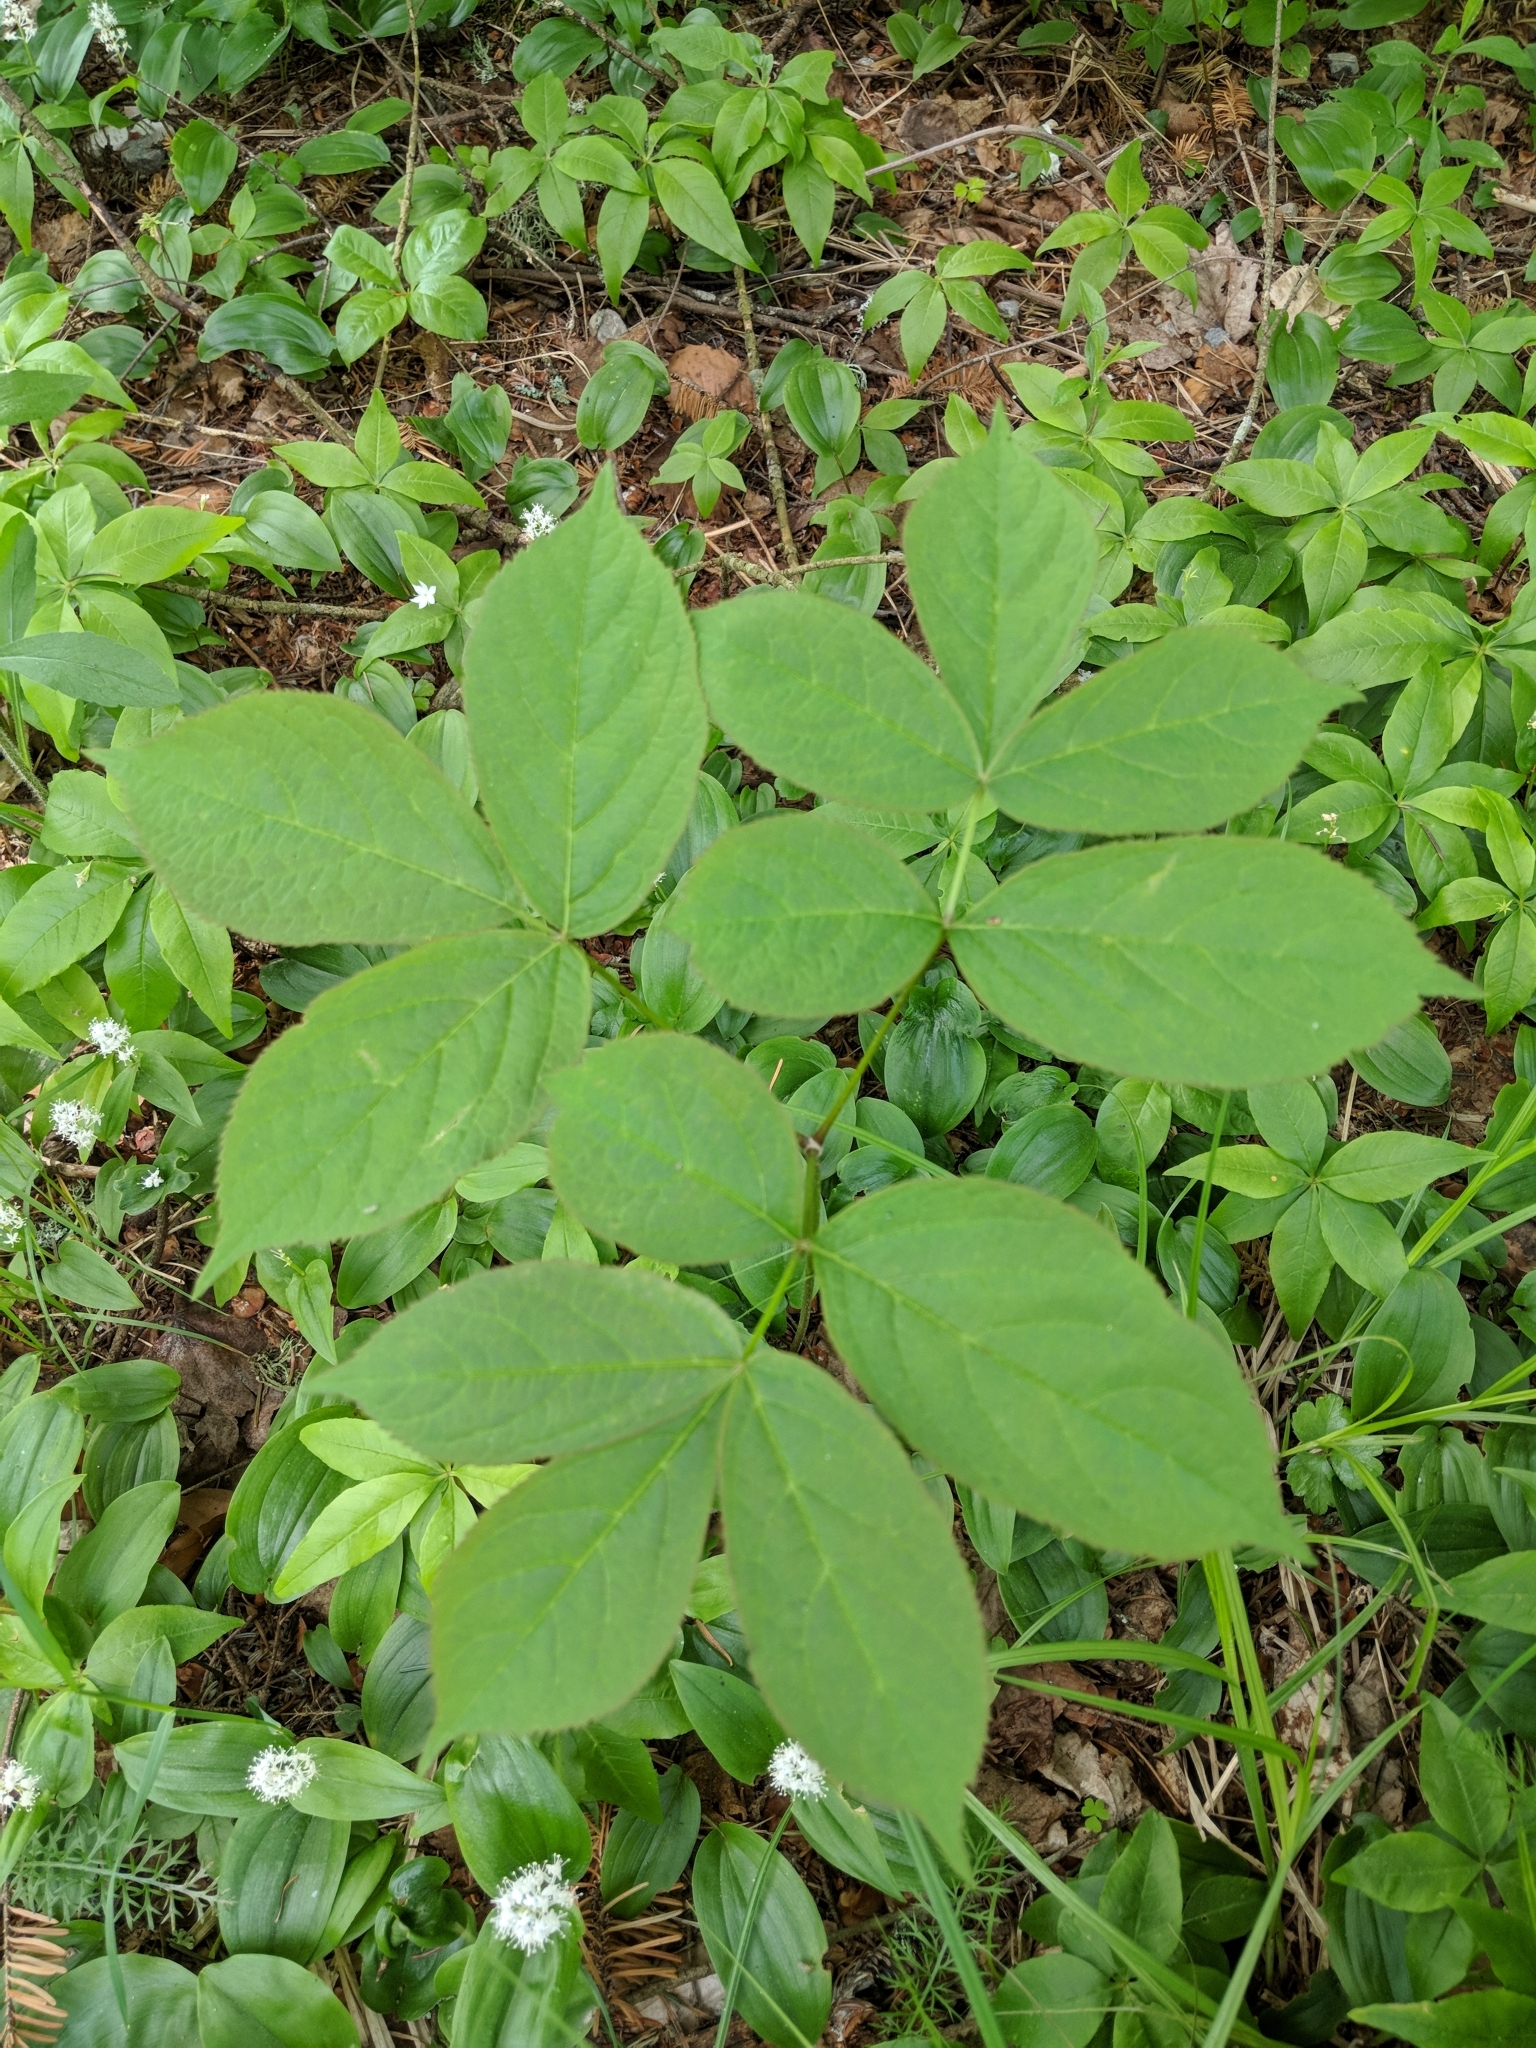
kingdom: Plantae
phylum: Tracheophyta
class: Magnoliopsida
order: Apiales
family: Araliaceae
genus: Aralia
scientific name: Aralia nudicaulis
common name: Wild sarsaparilla
